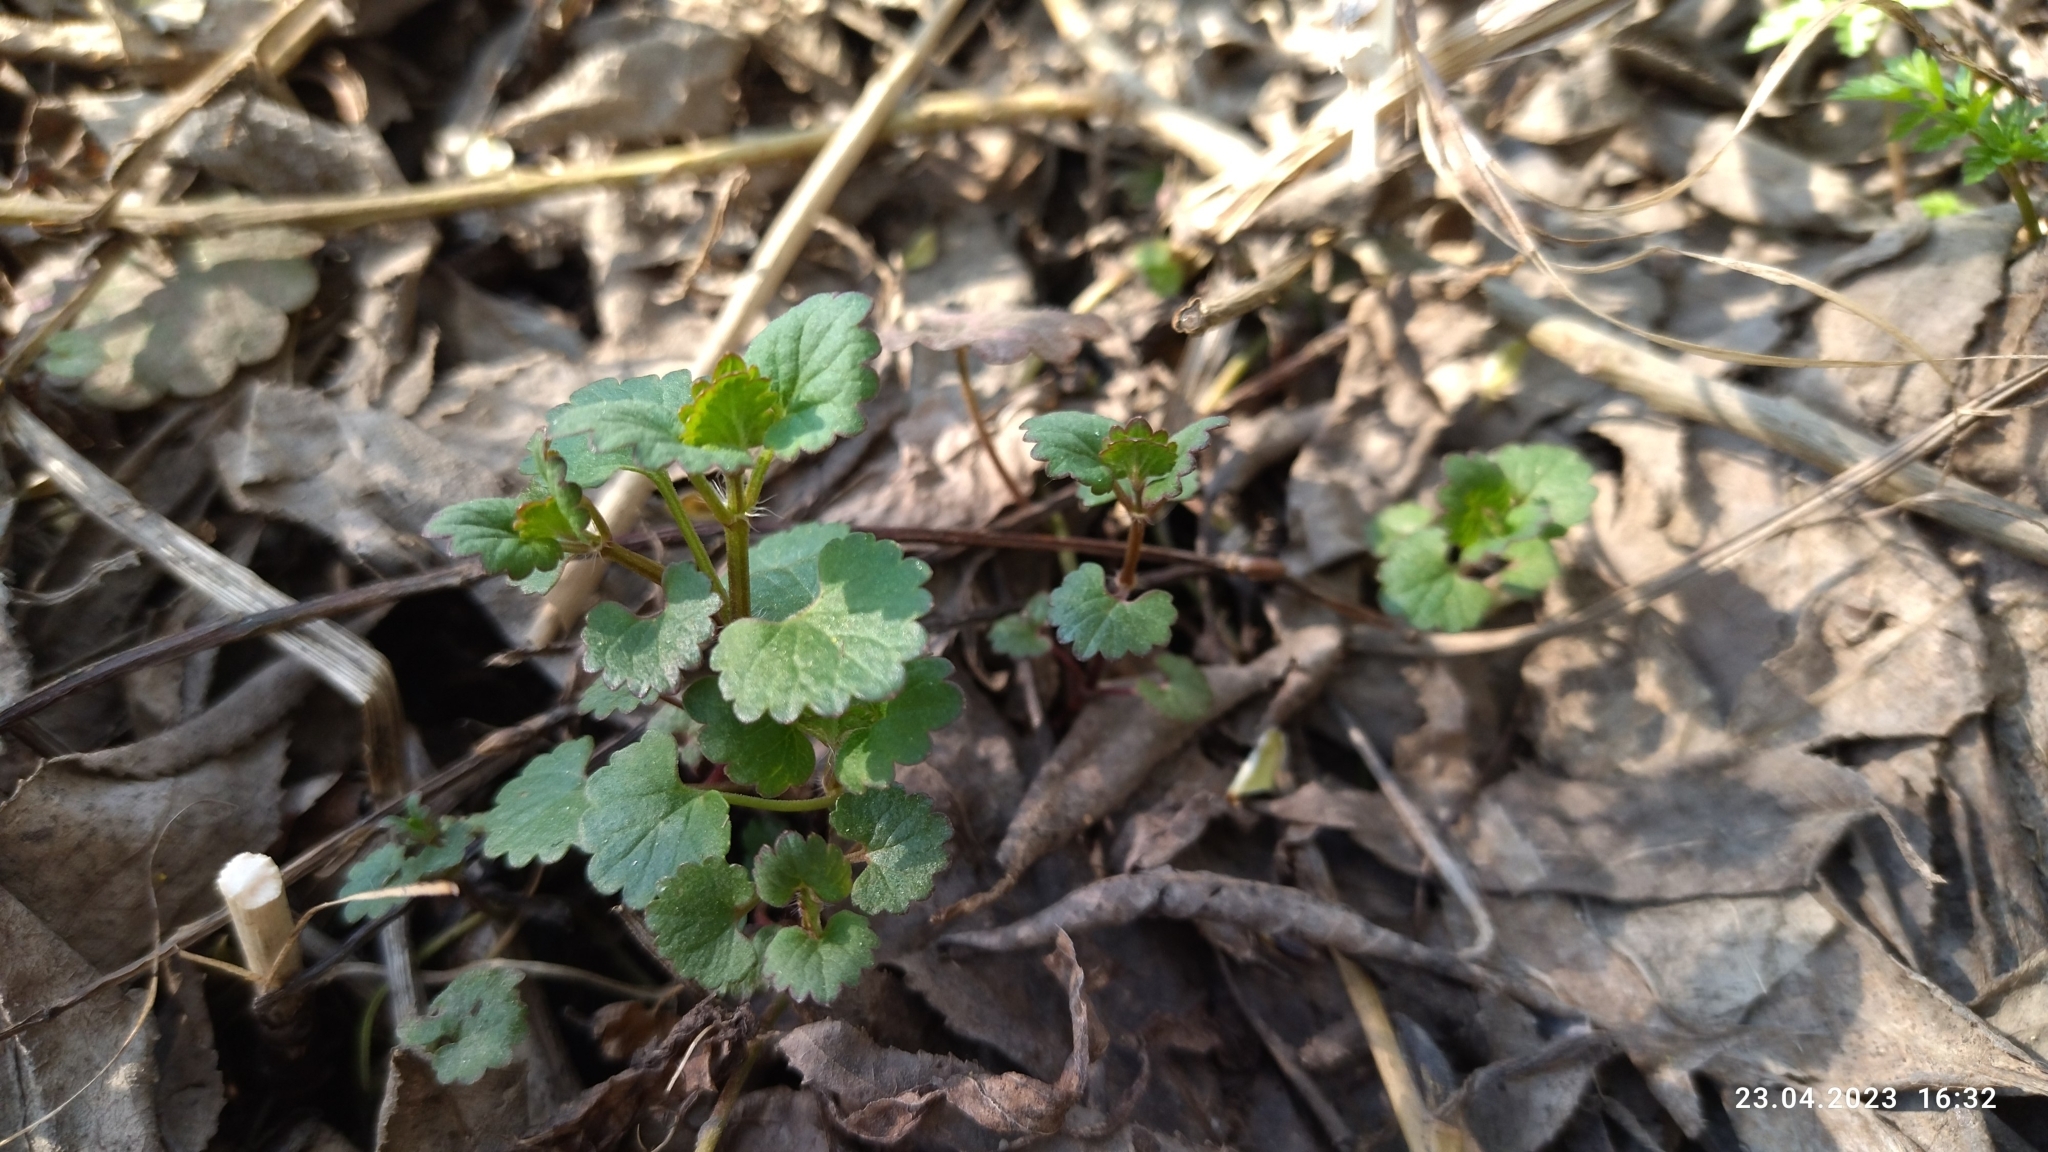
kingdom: Plantae
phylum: Tracheophyta
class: Magnoliopsida
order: Lamiales
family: Lamiaceae
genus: Glechoma
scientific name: Glechoma hederacea
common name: Ground ivy
